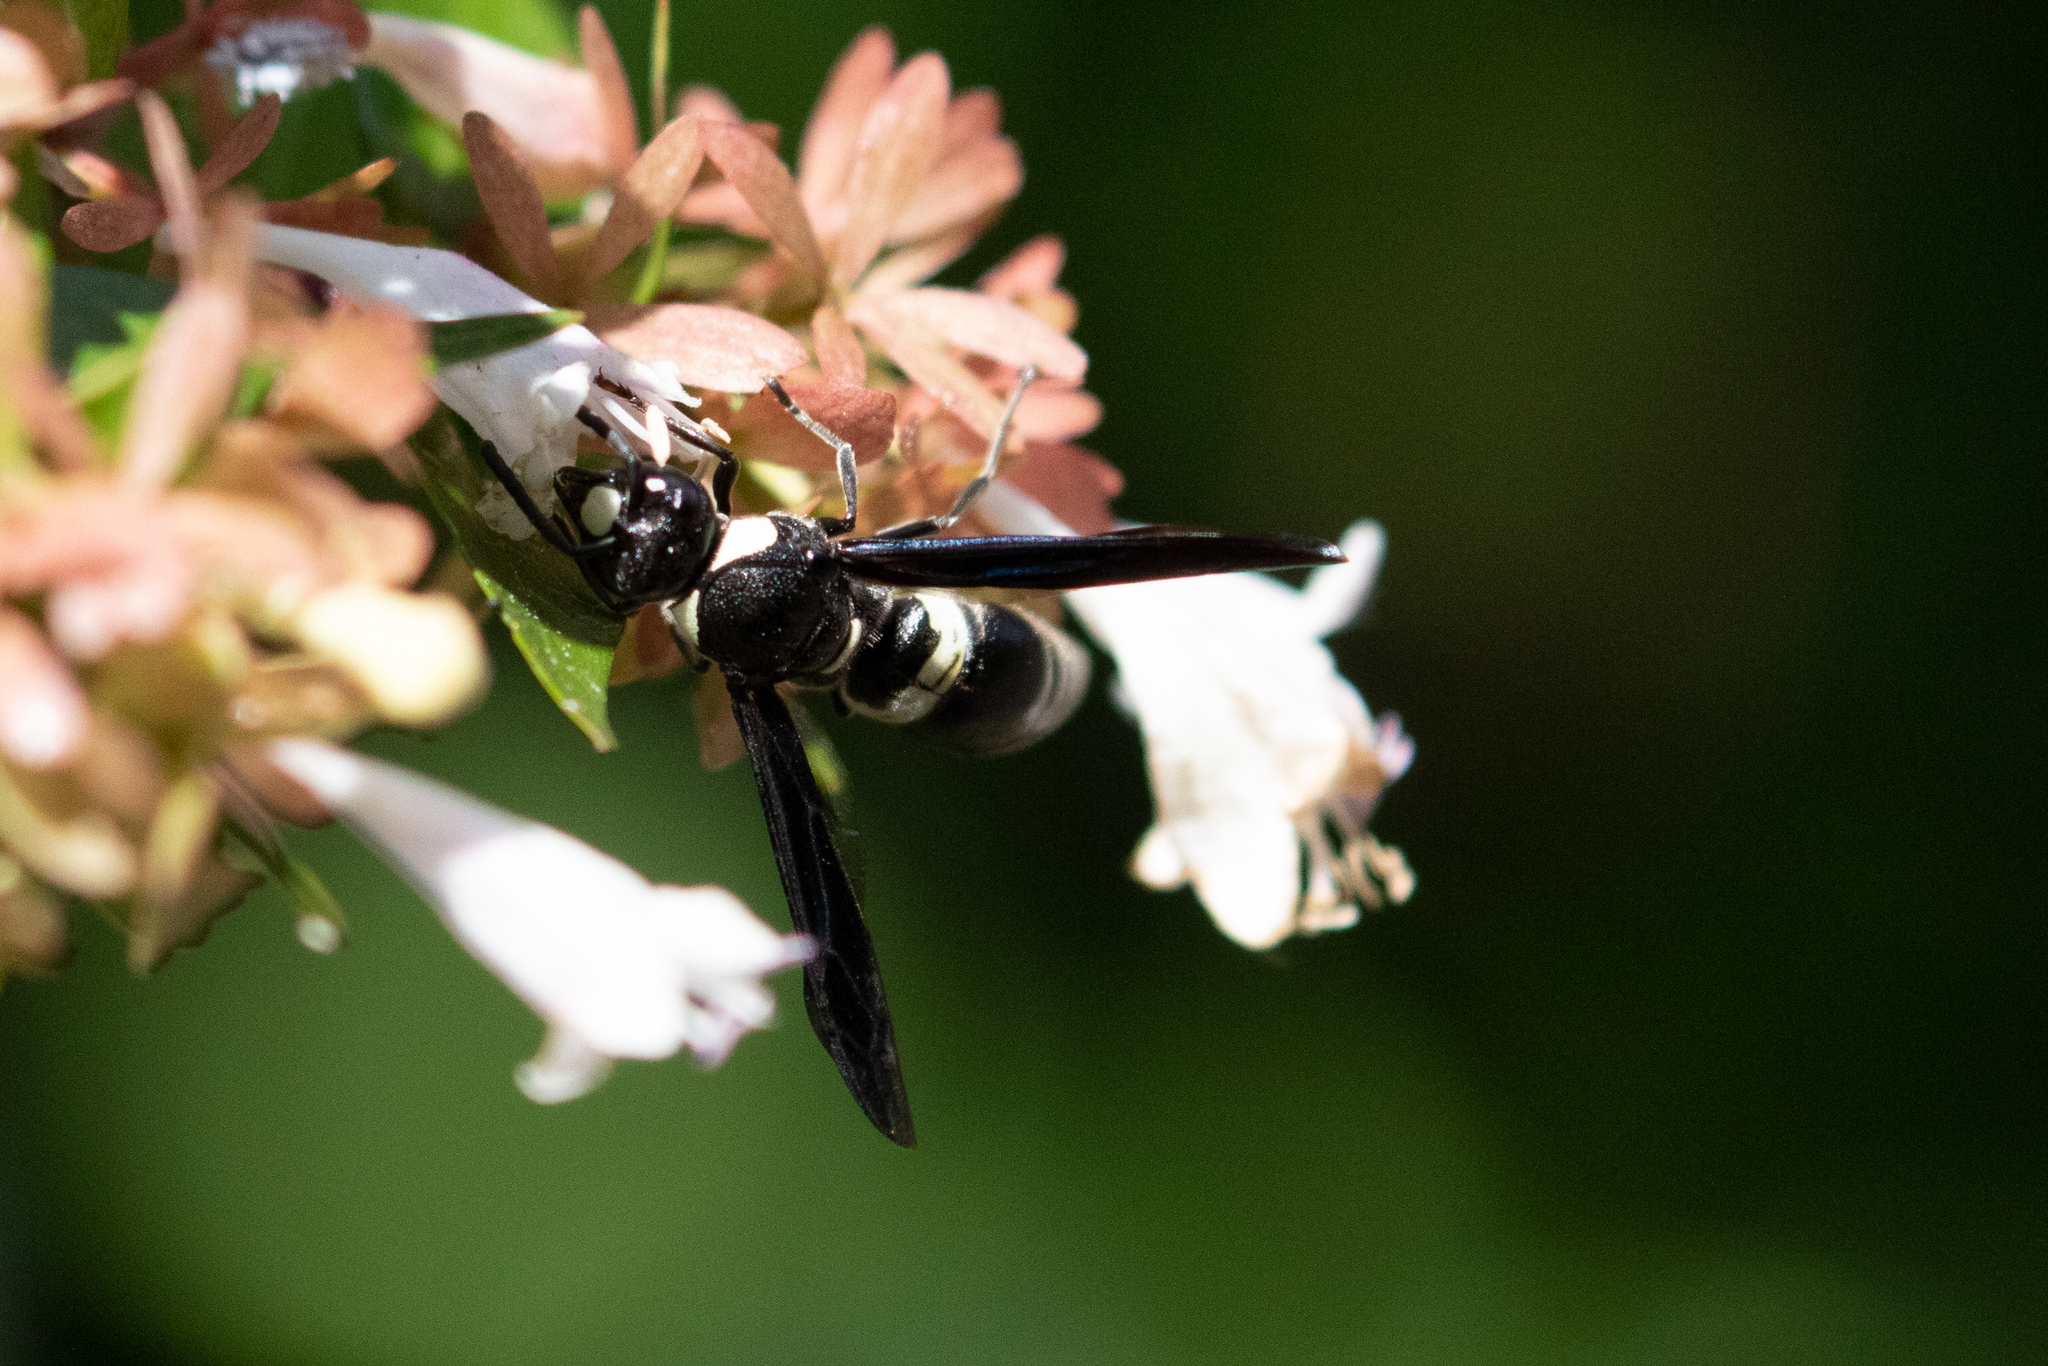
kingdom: Animalia
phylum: Arthropoda
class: Insecta
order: Hymenoptera
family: Eumenidae
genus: Monobia
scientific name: Monobia quadridens
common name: Four-toothed mason wasp
